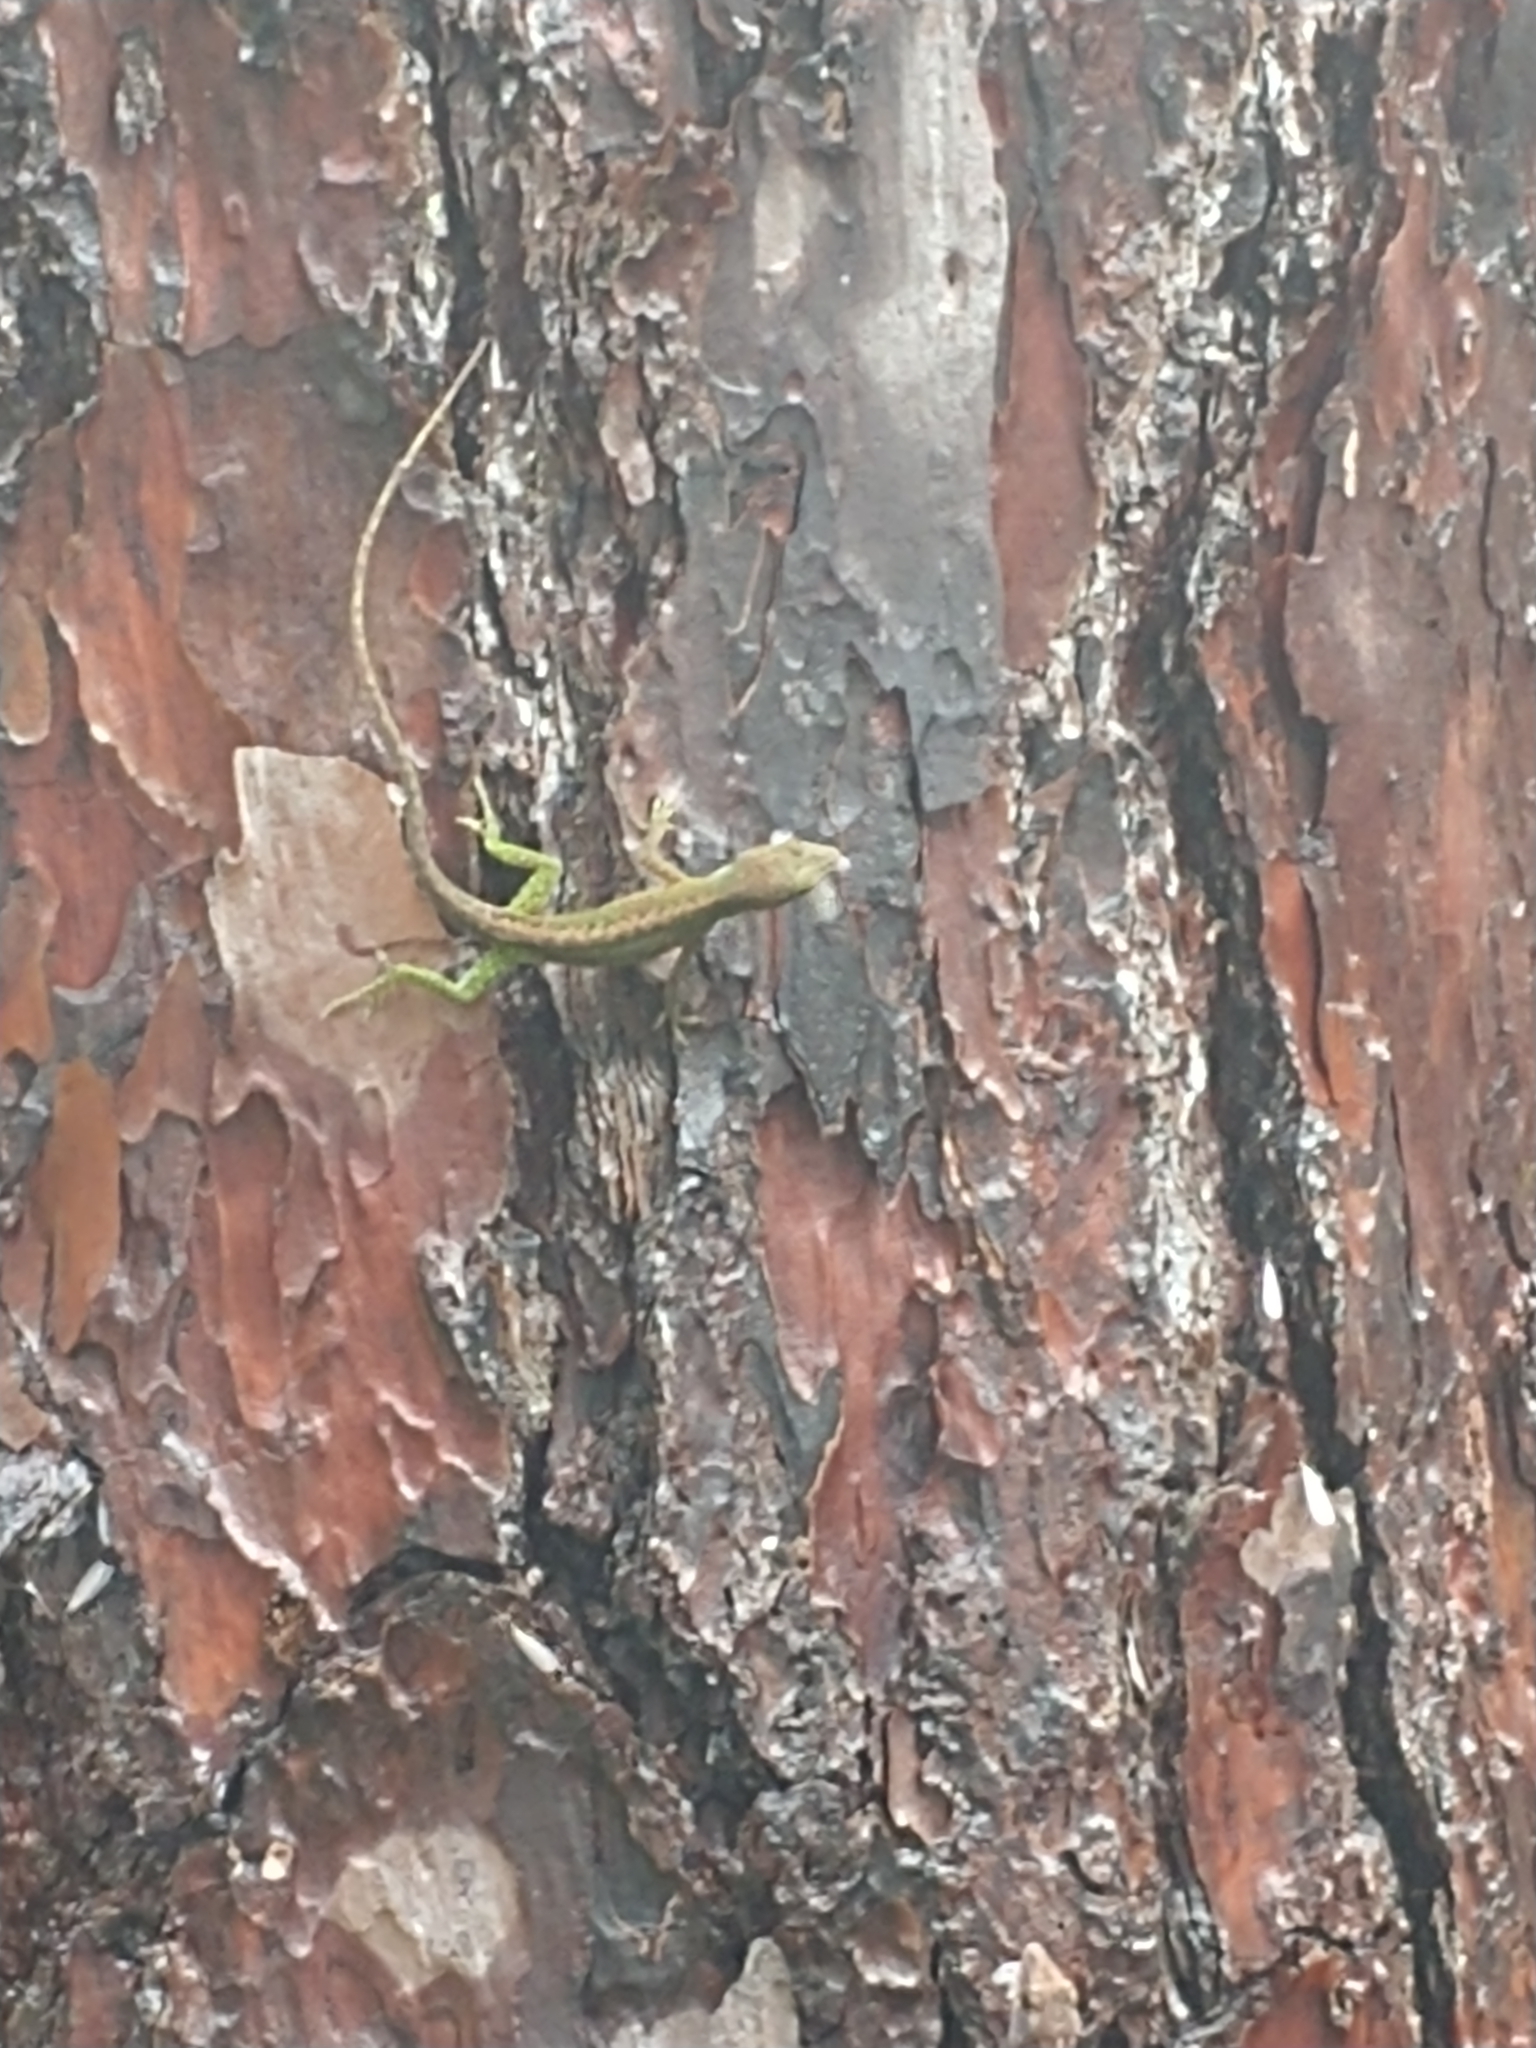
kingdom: Animalia
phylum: Chordata
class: Squamata
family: Dactyloidae
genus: Anolis
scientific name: Anolis carolinensis
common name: Green anole
